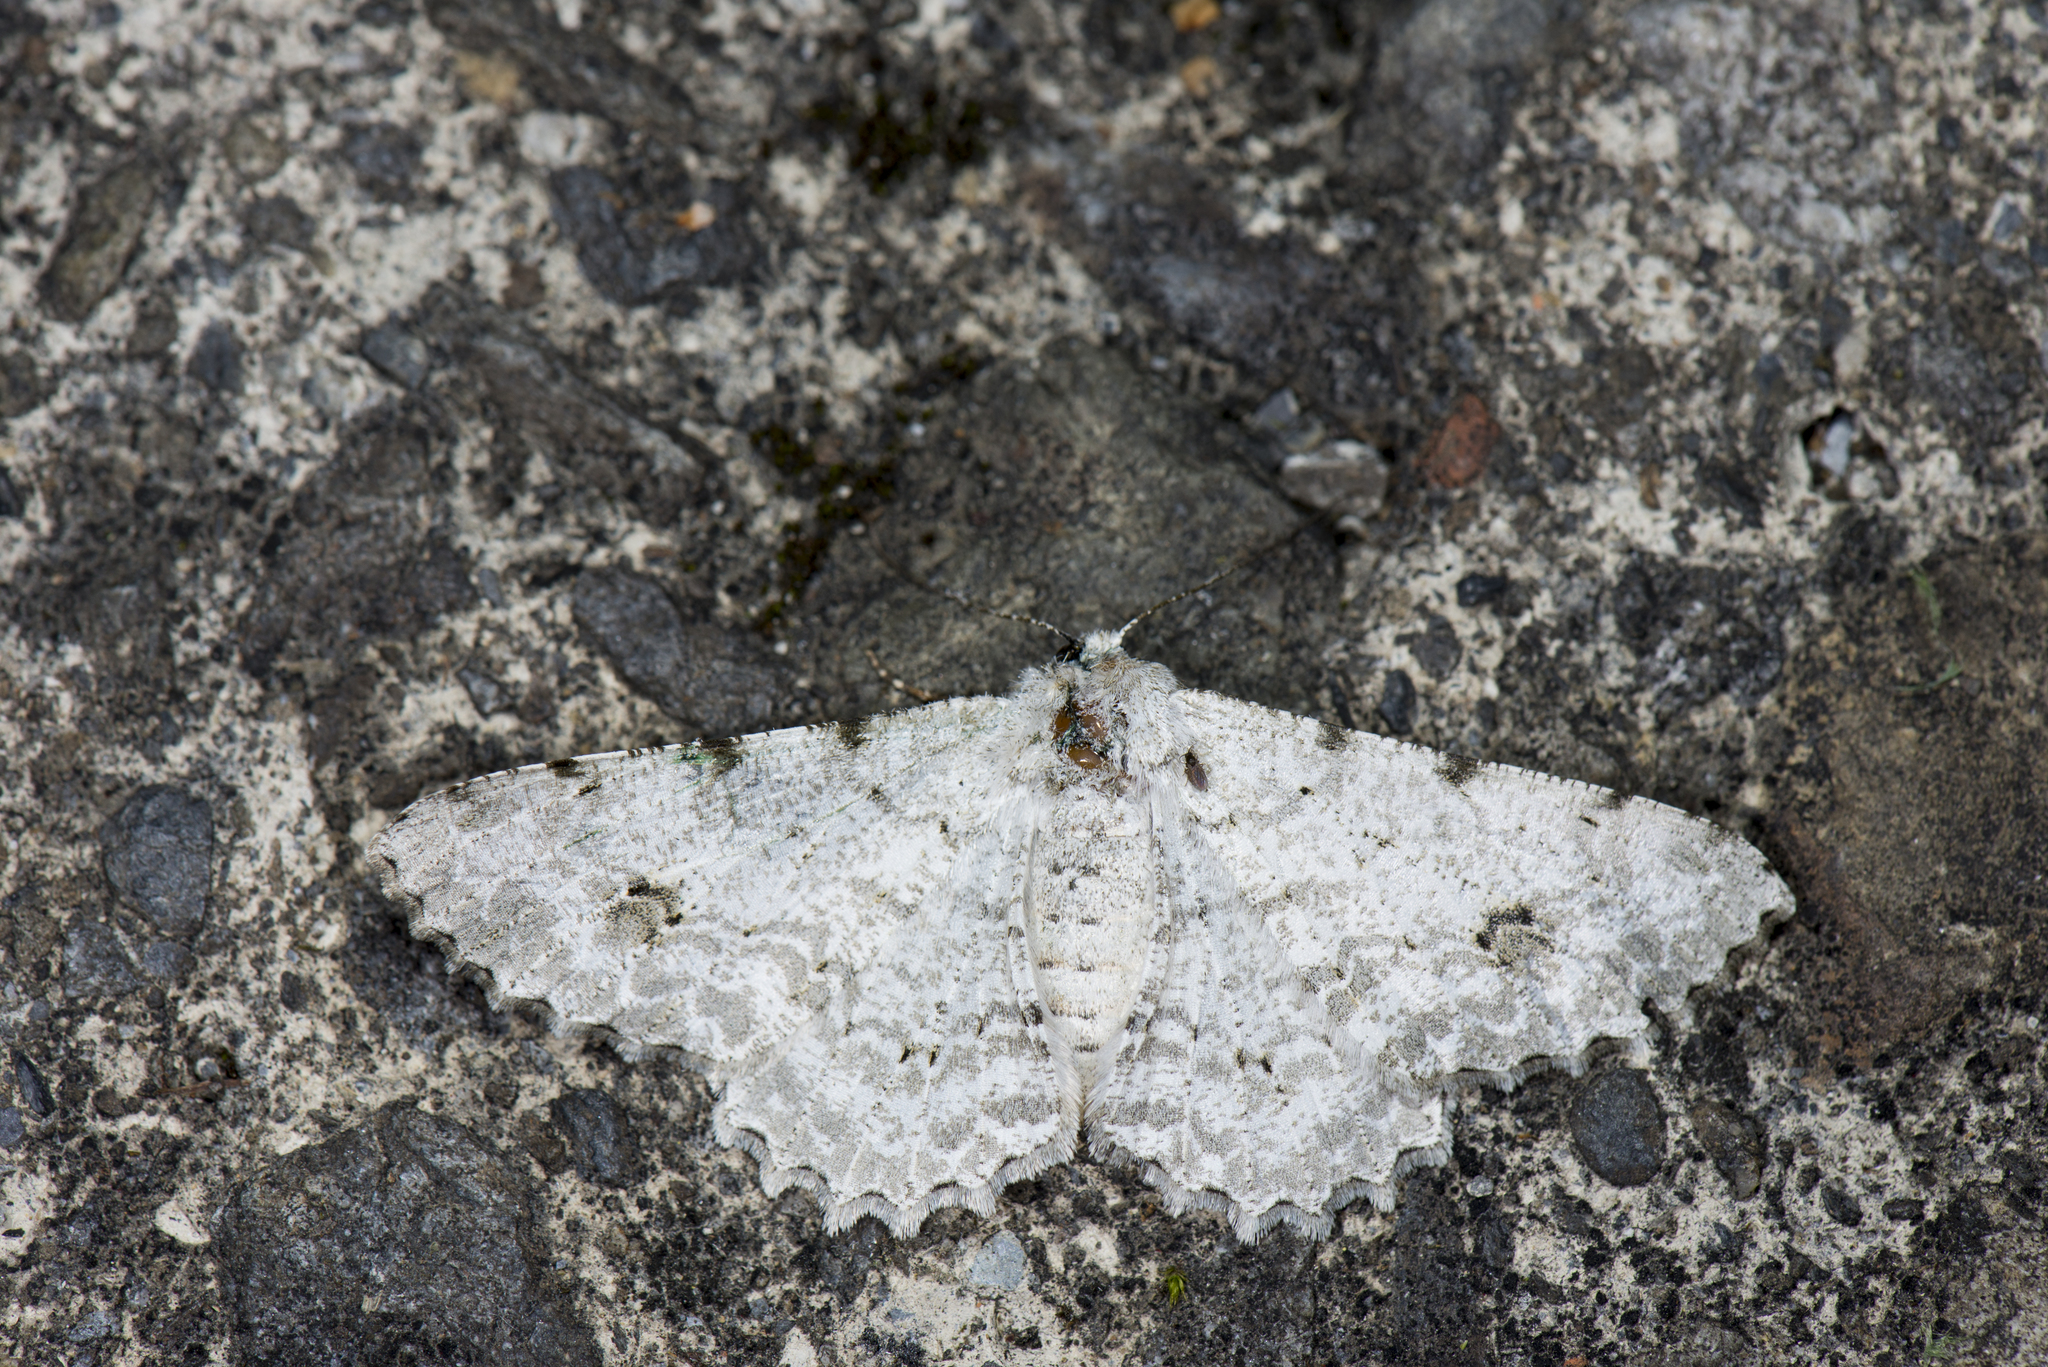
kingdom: Animalia
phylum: Arthropoda
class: Insecta
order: Lepidoptera
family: Geometridae
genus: Lassaba
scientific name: Lassaba parvalbidaria
